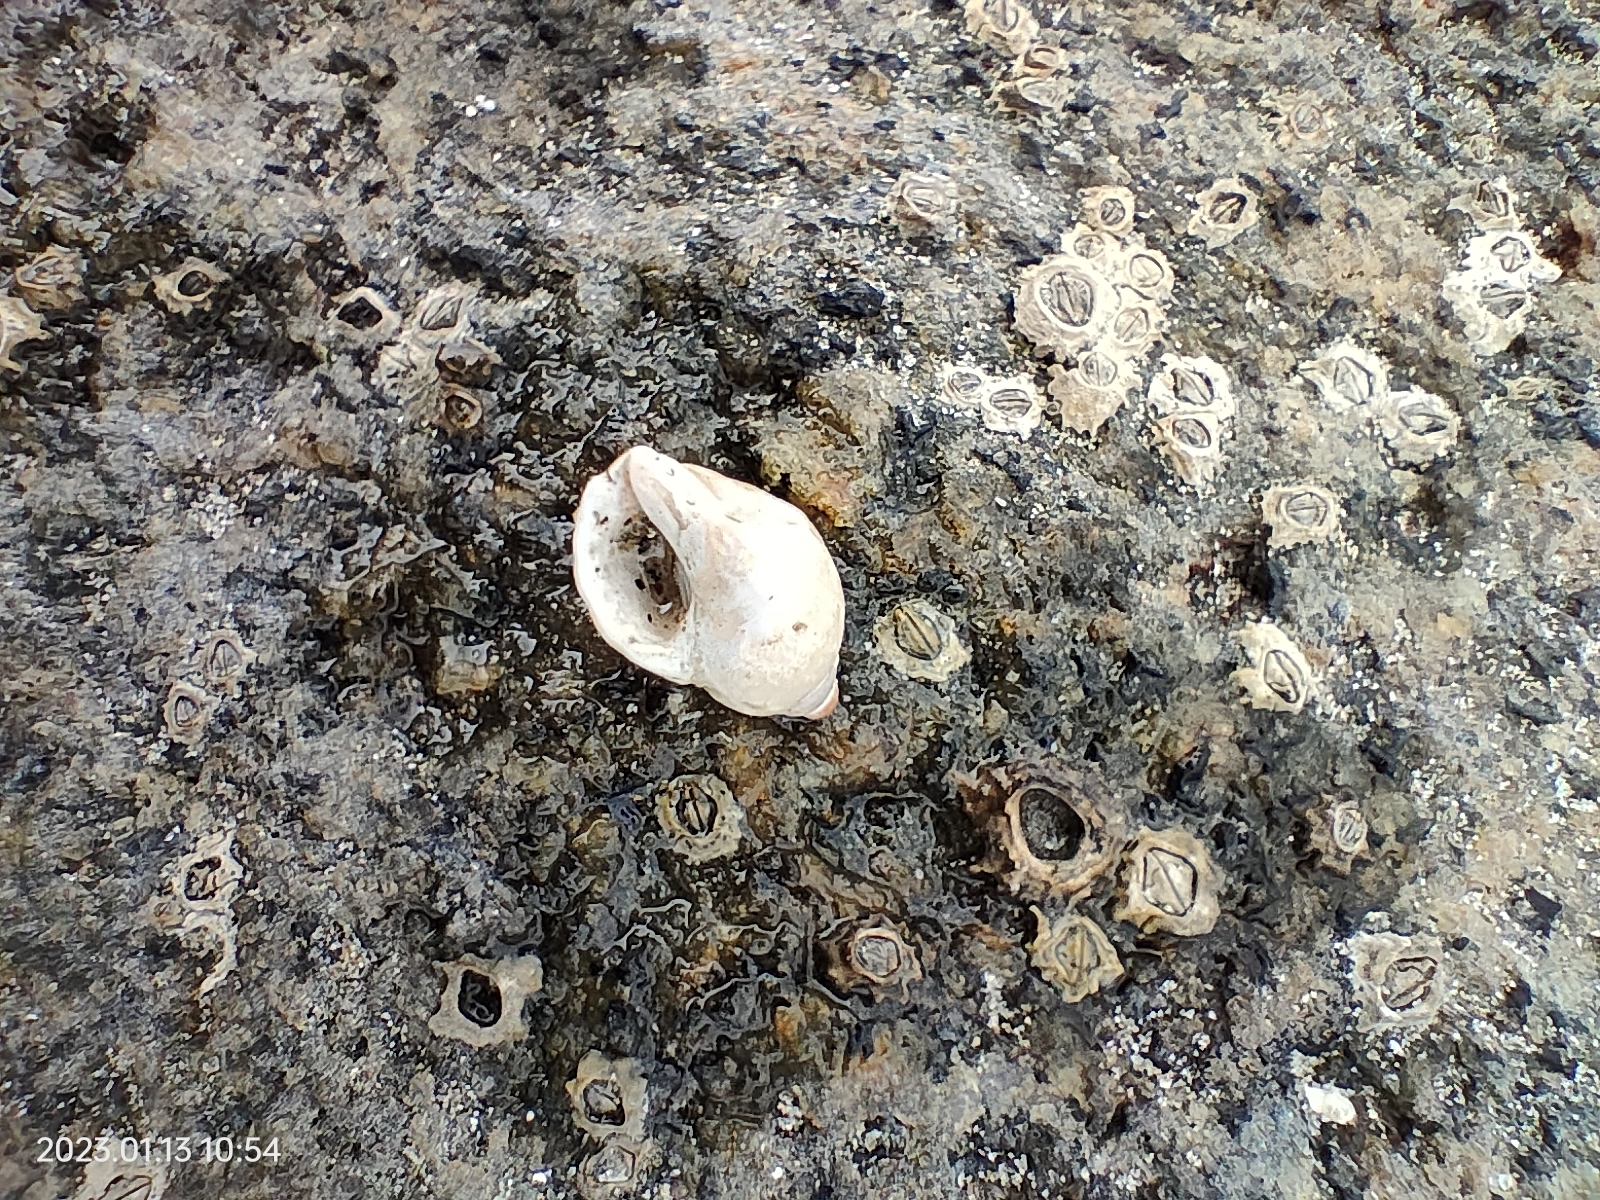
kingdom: Animalia
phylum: Mollusca
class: Gastropoda
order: Neogastropoda
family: Muricidae
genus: Paratrophon
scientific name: Paratrophon patens
